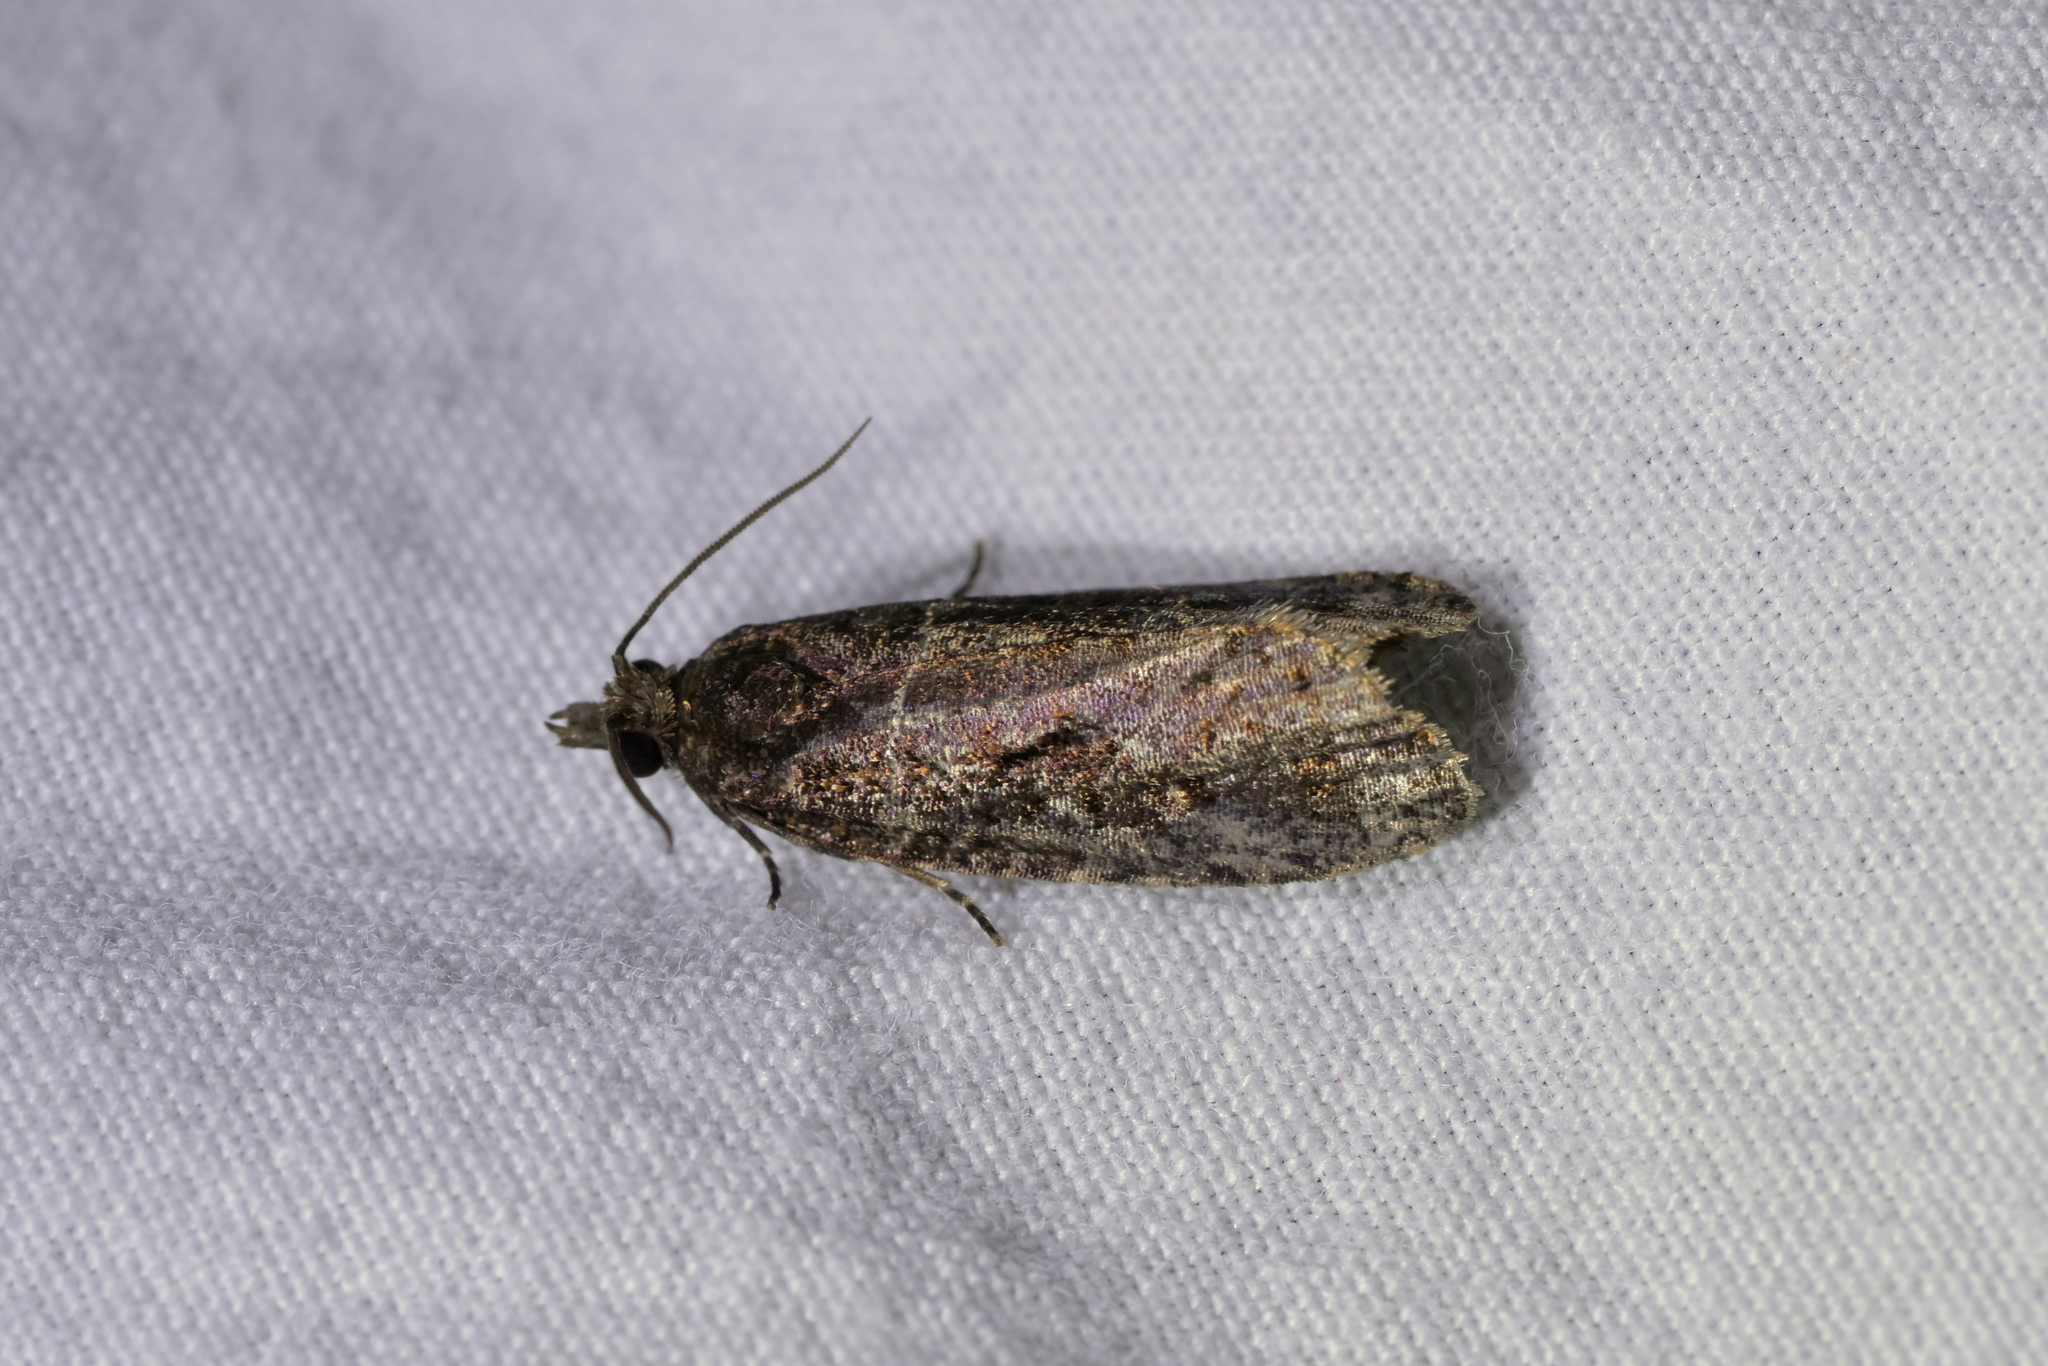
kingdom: Animalia
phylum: Arthropoda
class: Insecta
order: Lepidoptera
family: Tortricidae
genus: Cryptaspasma
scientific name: Cryptaspasma querula
